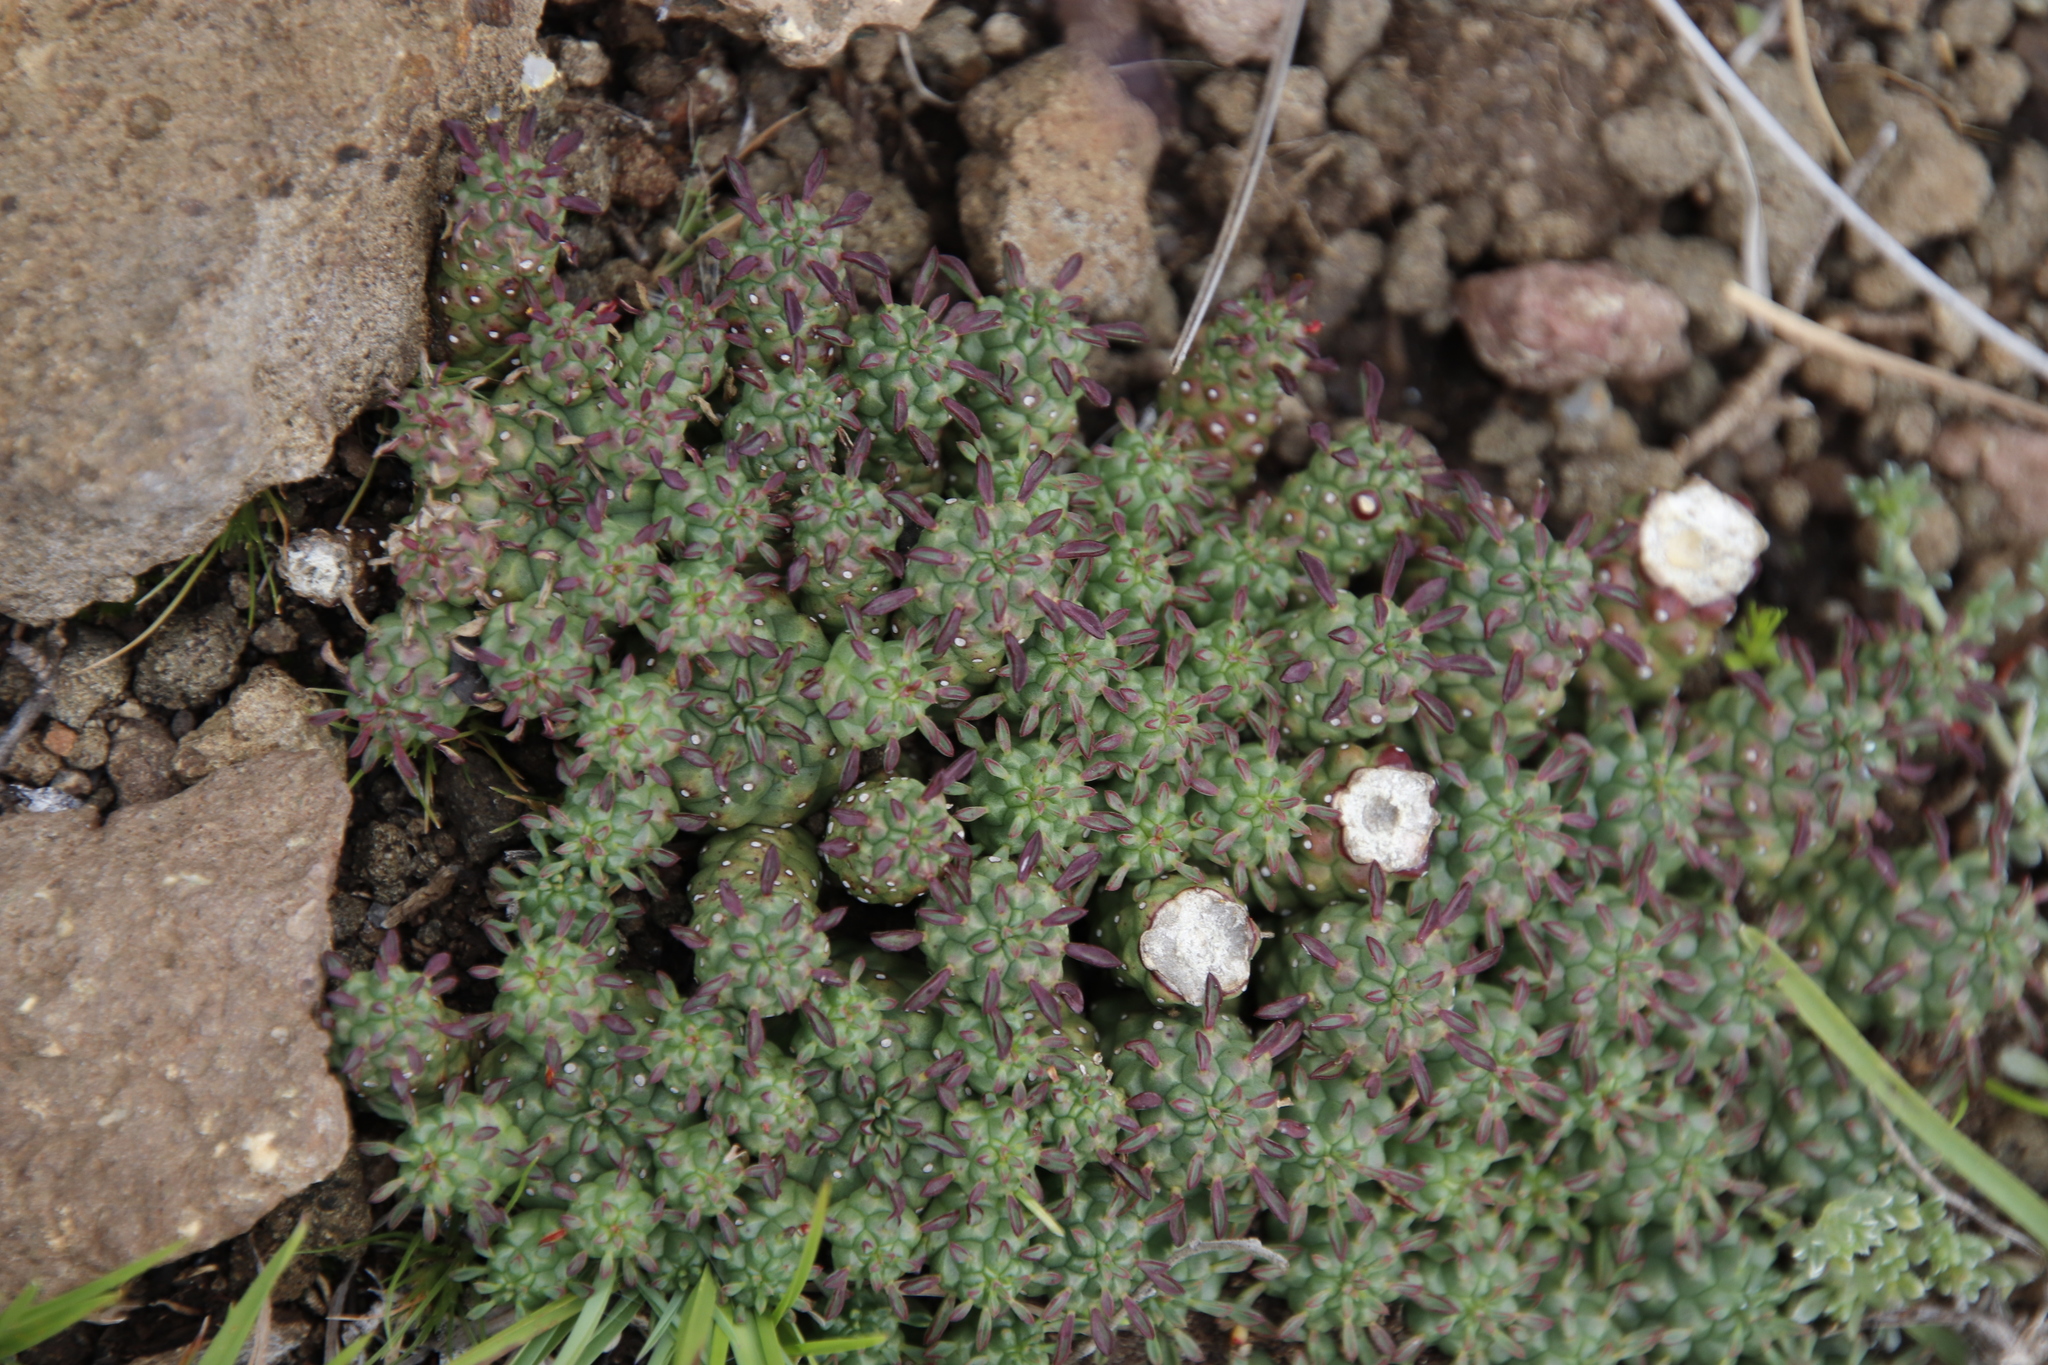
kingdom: Plantae
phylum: Tracheophyta
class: Magnoliopsida
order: Malpighiales
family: Euphorbiaceae
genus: Euphorbia
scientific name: Euphorbia clavarioides
